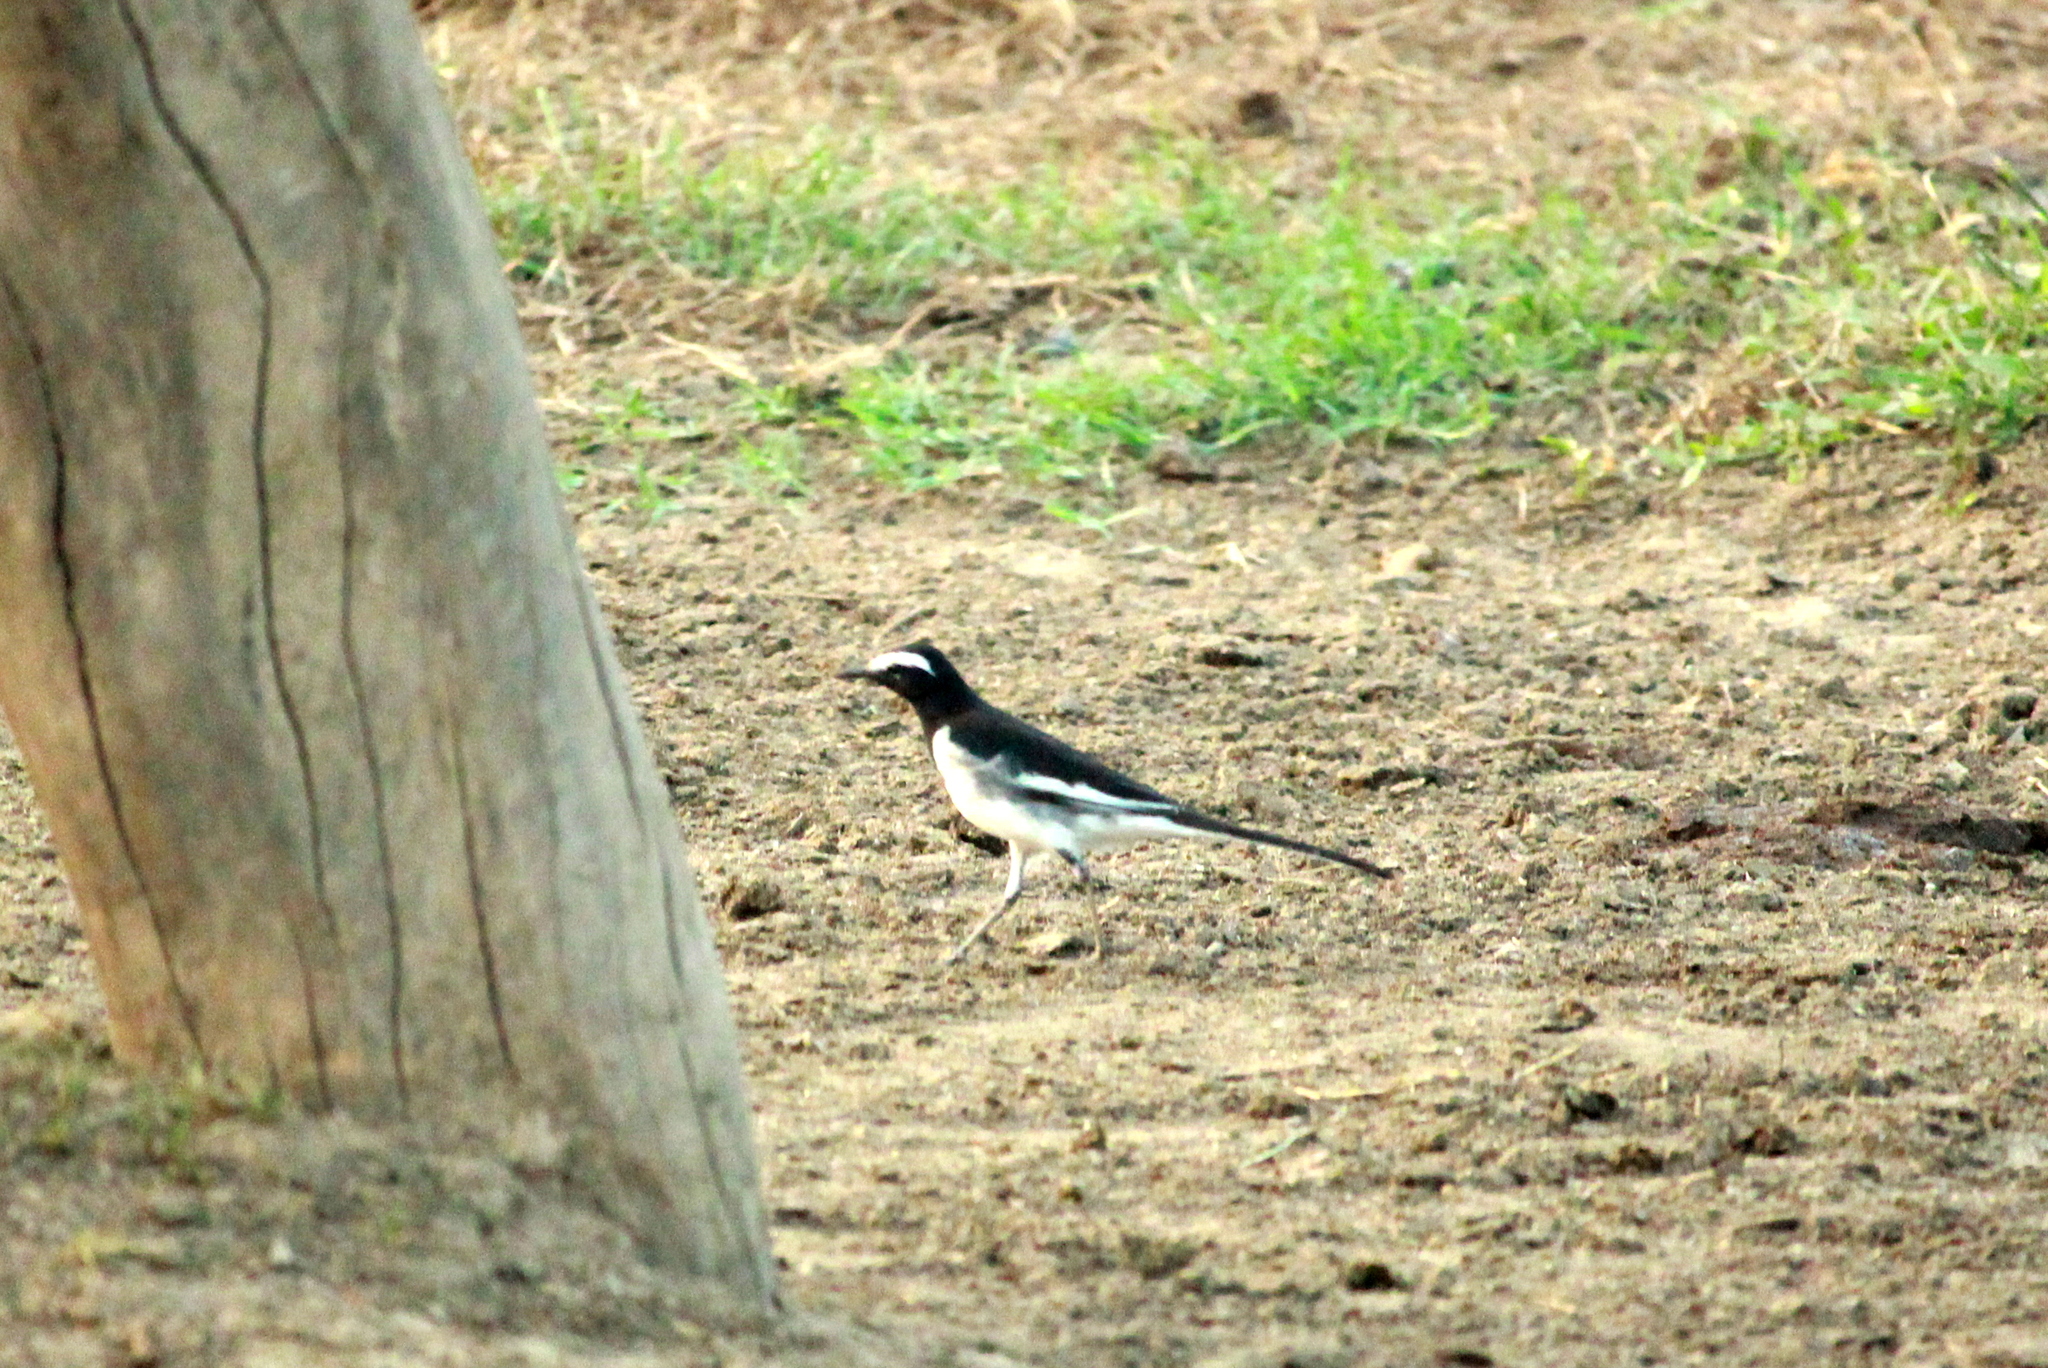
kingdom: Animalia
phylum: Chordata
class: Aves
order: Passeriformes
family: Motacillidae
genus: Motacilla
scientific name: Motacilla maderaspatensis
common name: White-browed wagtail
